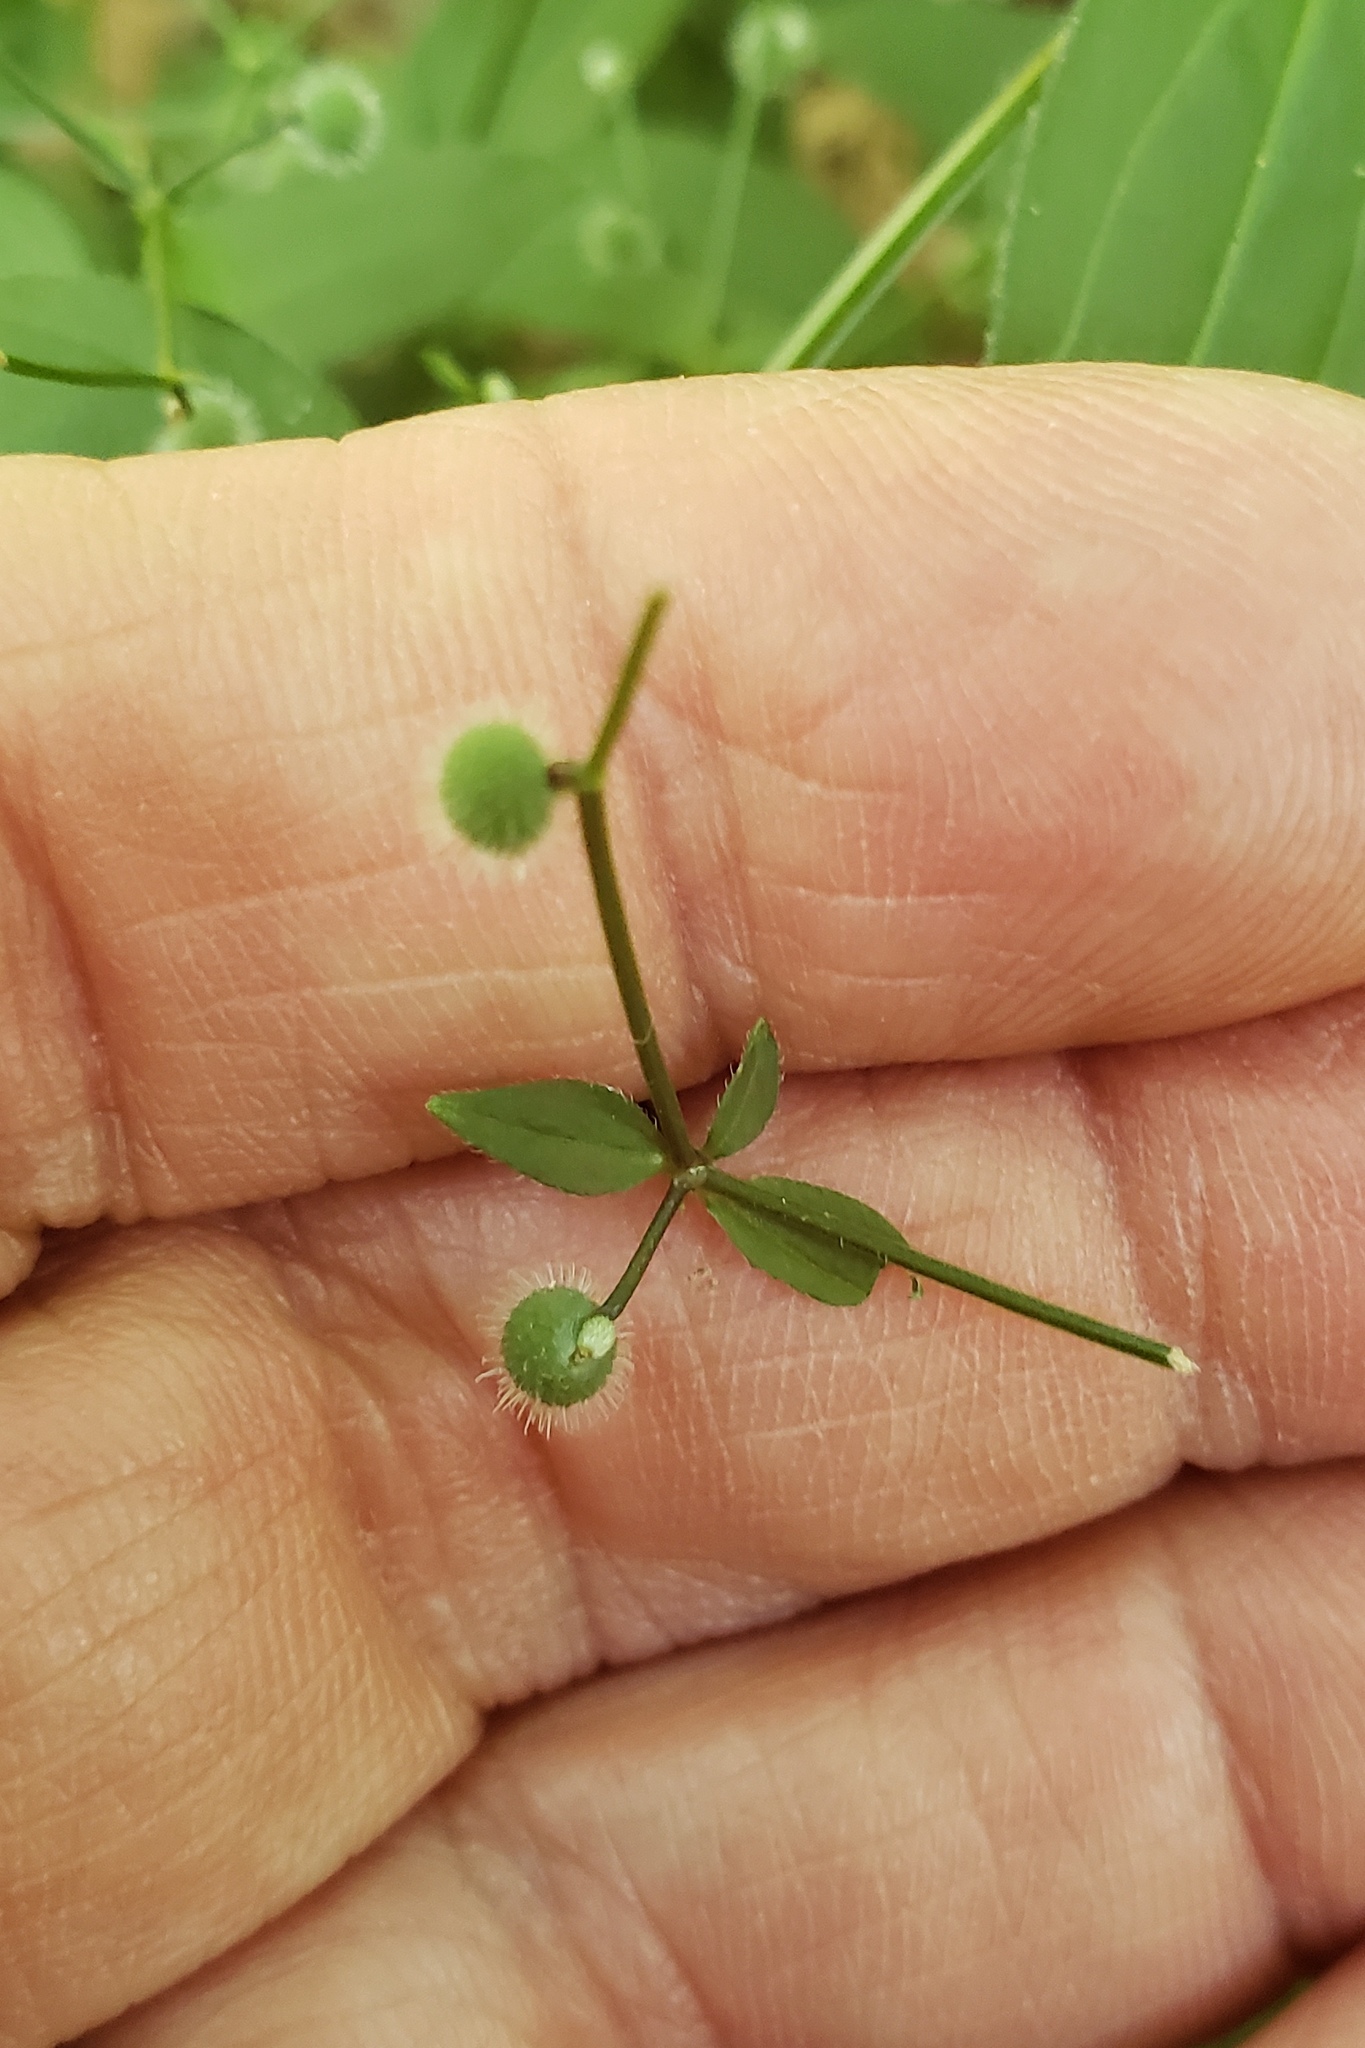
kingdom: Plantae
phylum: Tracheophyta
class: Magnoliopsida
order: Gentianales
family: Rubiaceae
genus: Galium
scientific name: Galium circaezans
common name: Forest bedstraw
